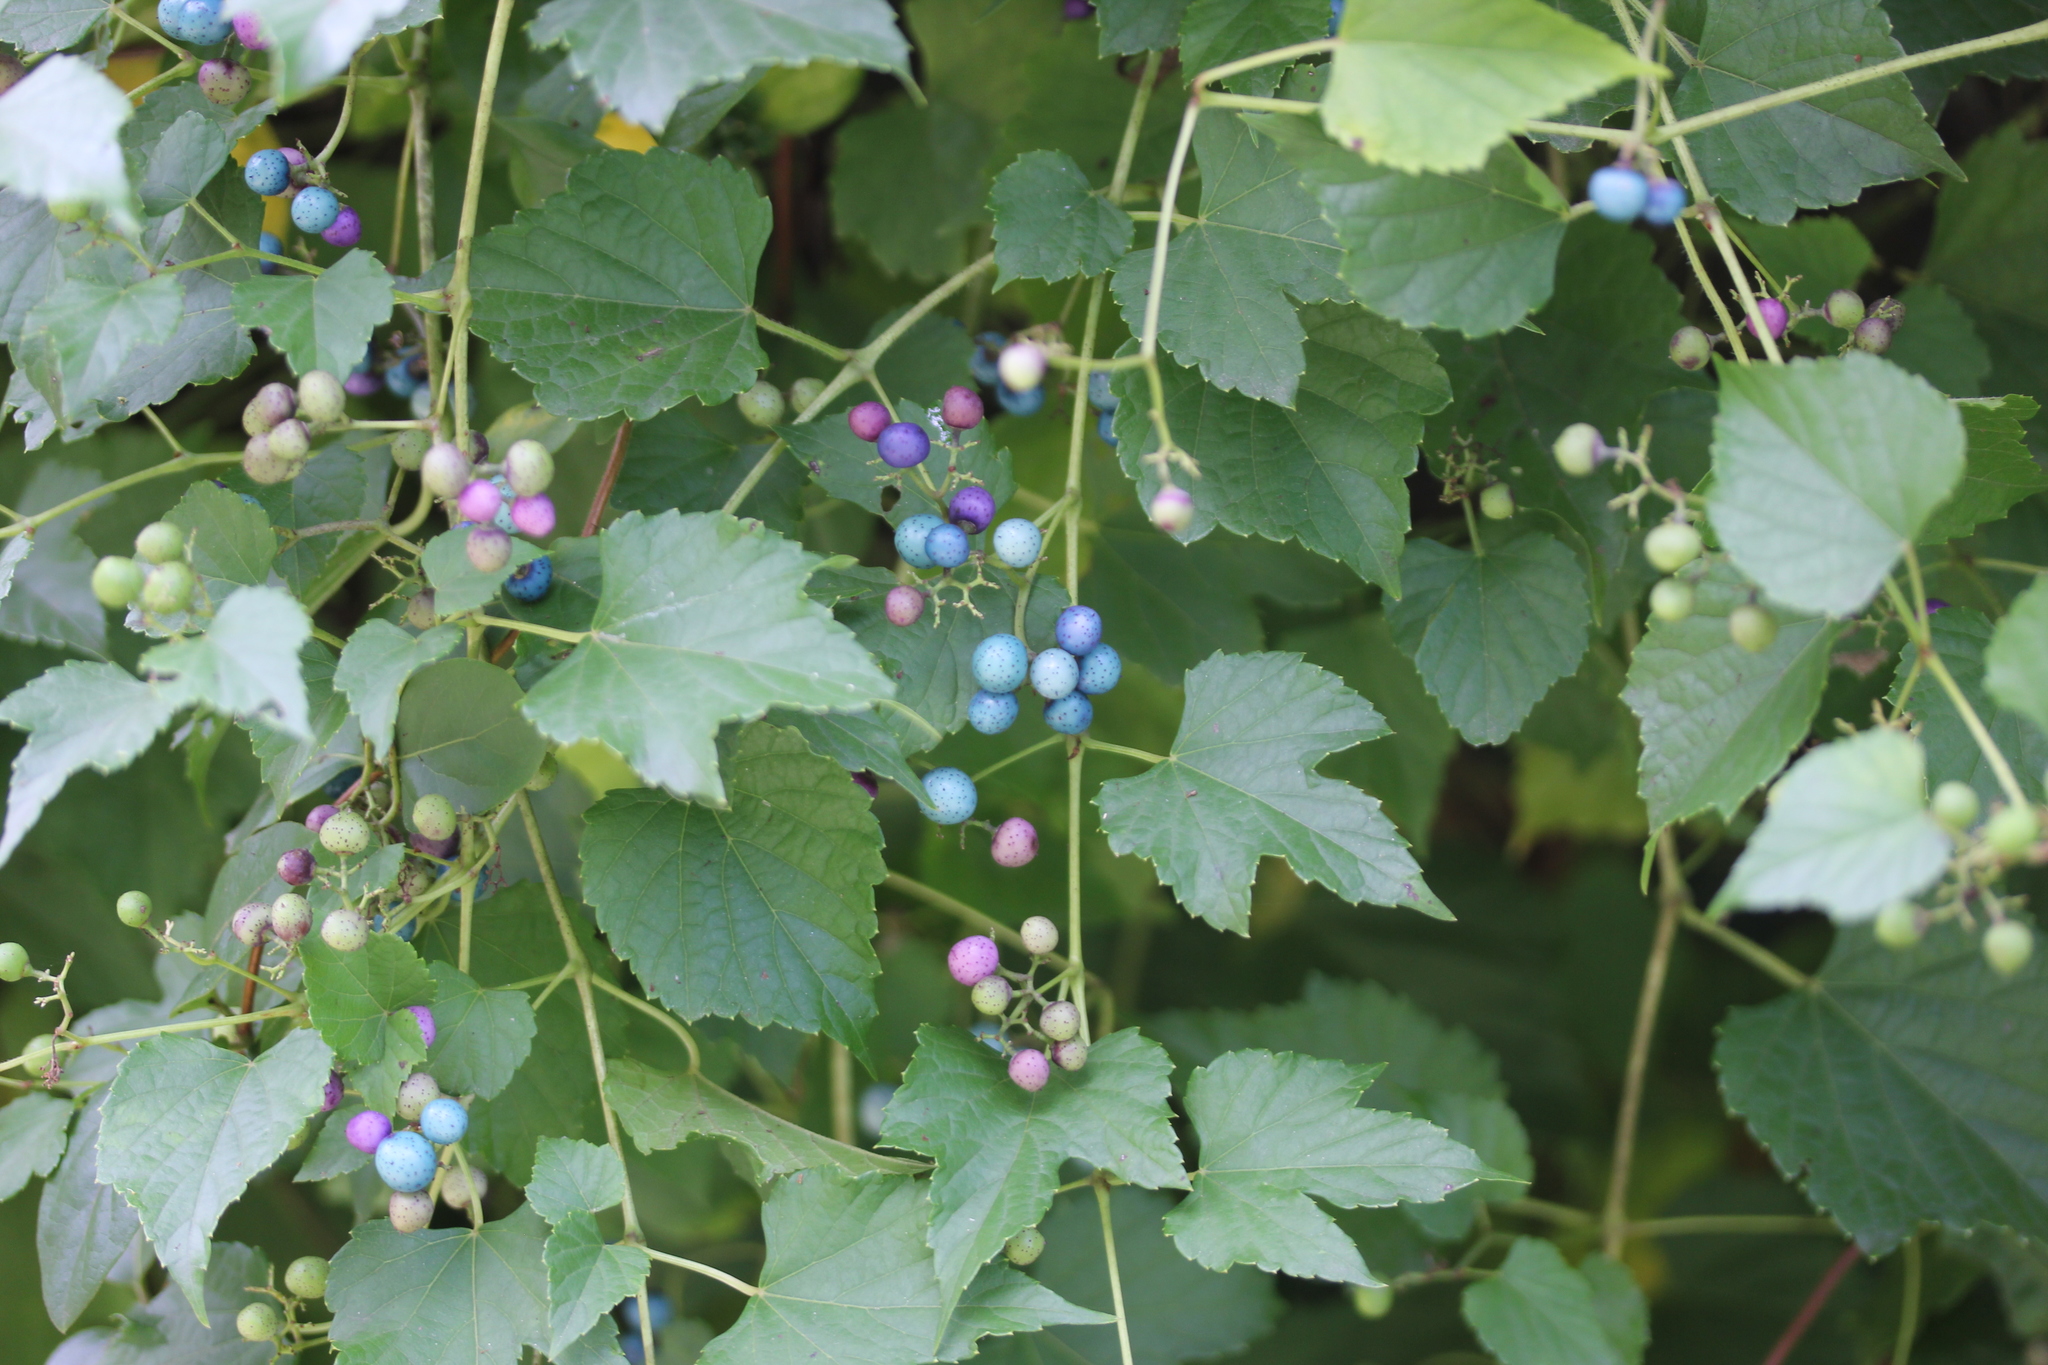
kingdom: Plantae
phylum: Tracheophyta
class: Magnoliopsida
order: Vitales
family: Vitaceae
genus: Ampelopsis
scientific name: Ampelopsis glandulosa
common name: Amur peppervine
